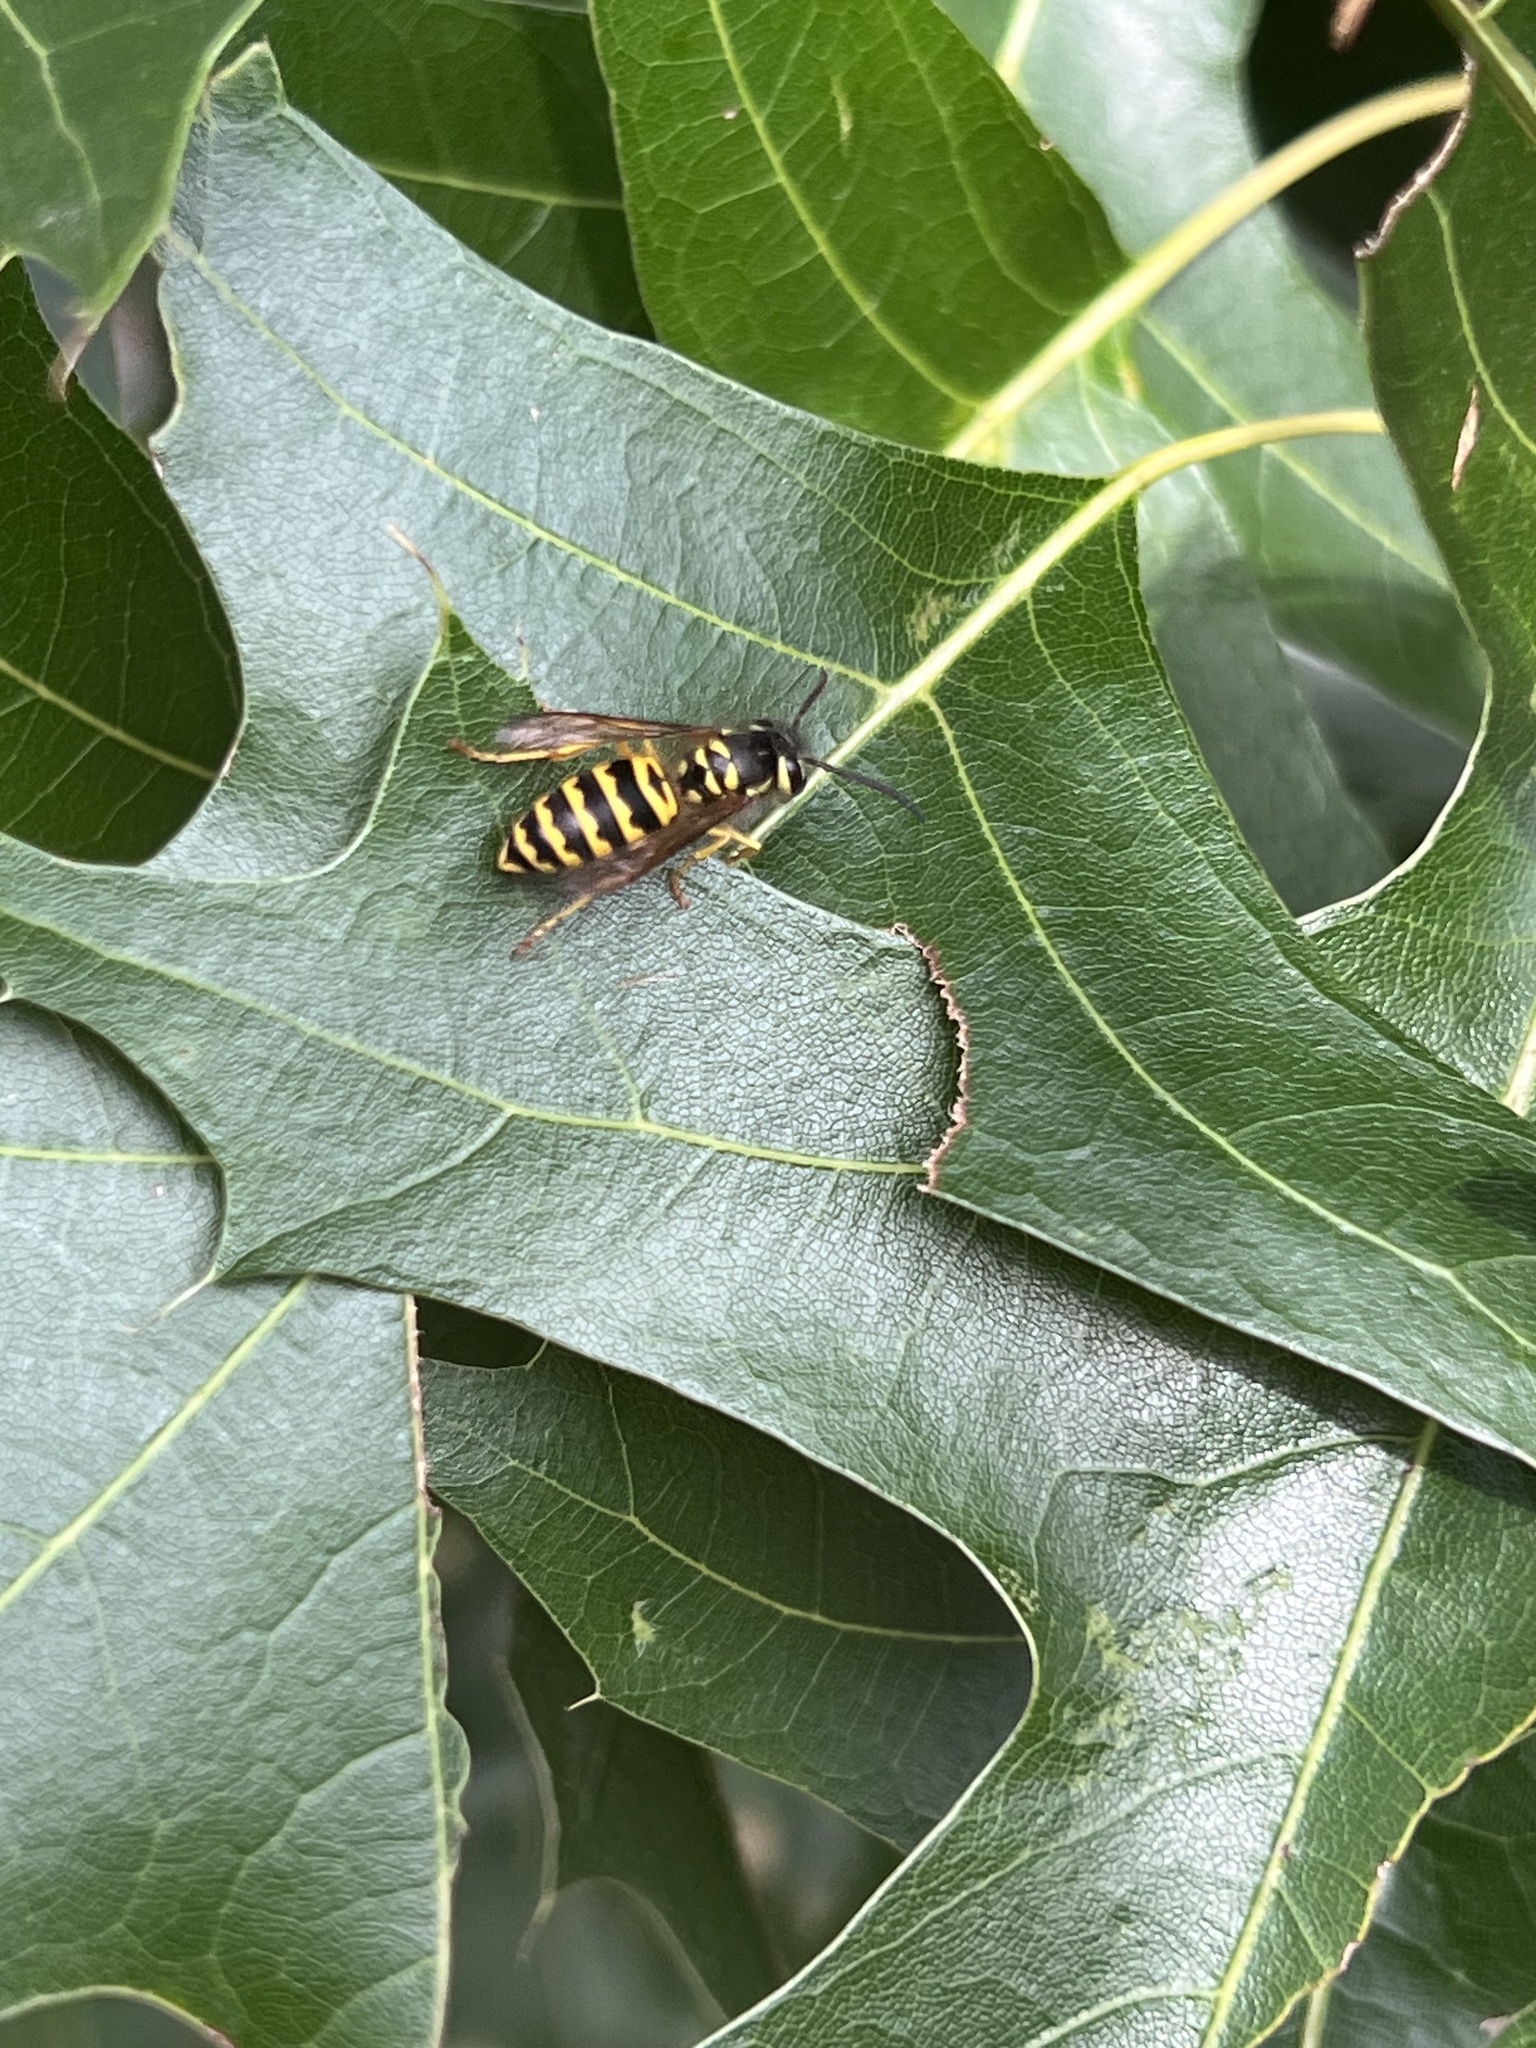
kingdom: Animalia
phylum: Arthropoda
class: Insecta
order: Hymenoptera
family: Vespidae
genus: Vespula
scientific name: Vespula maculifrons
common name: Eastern yellowjacket
